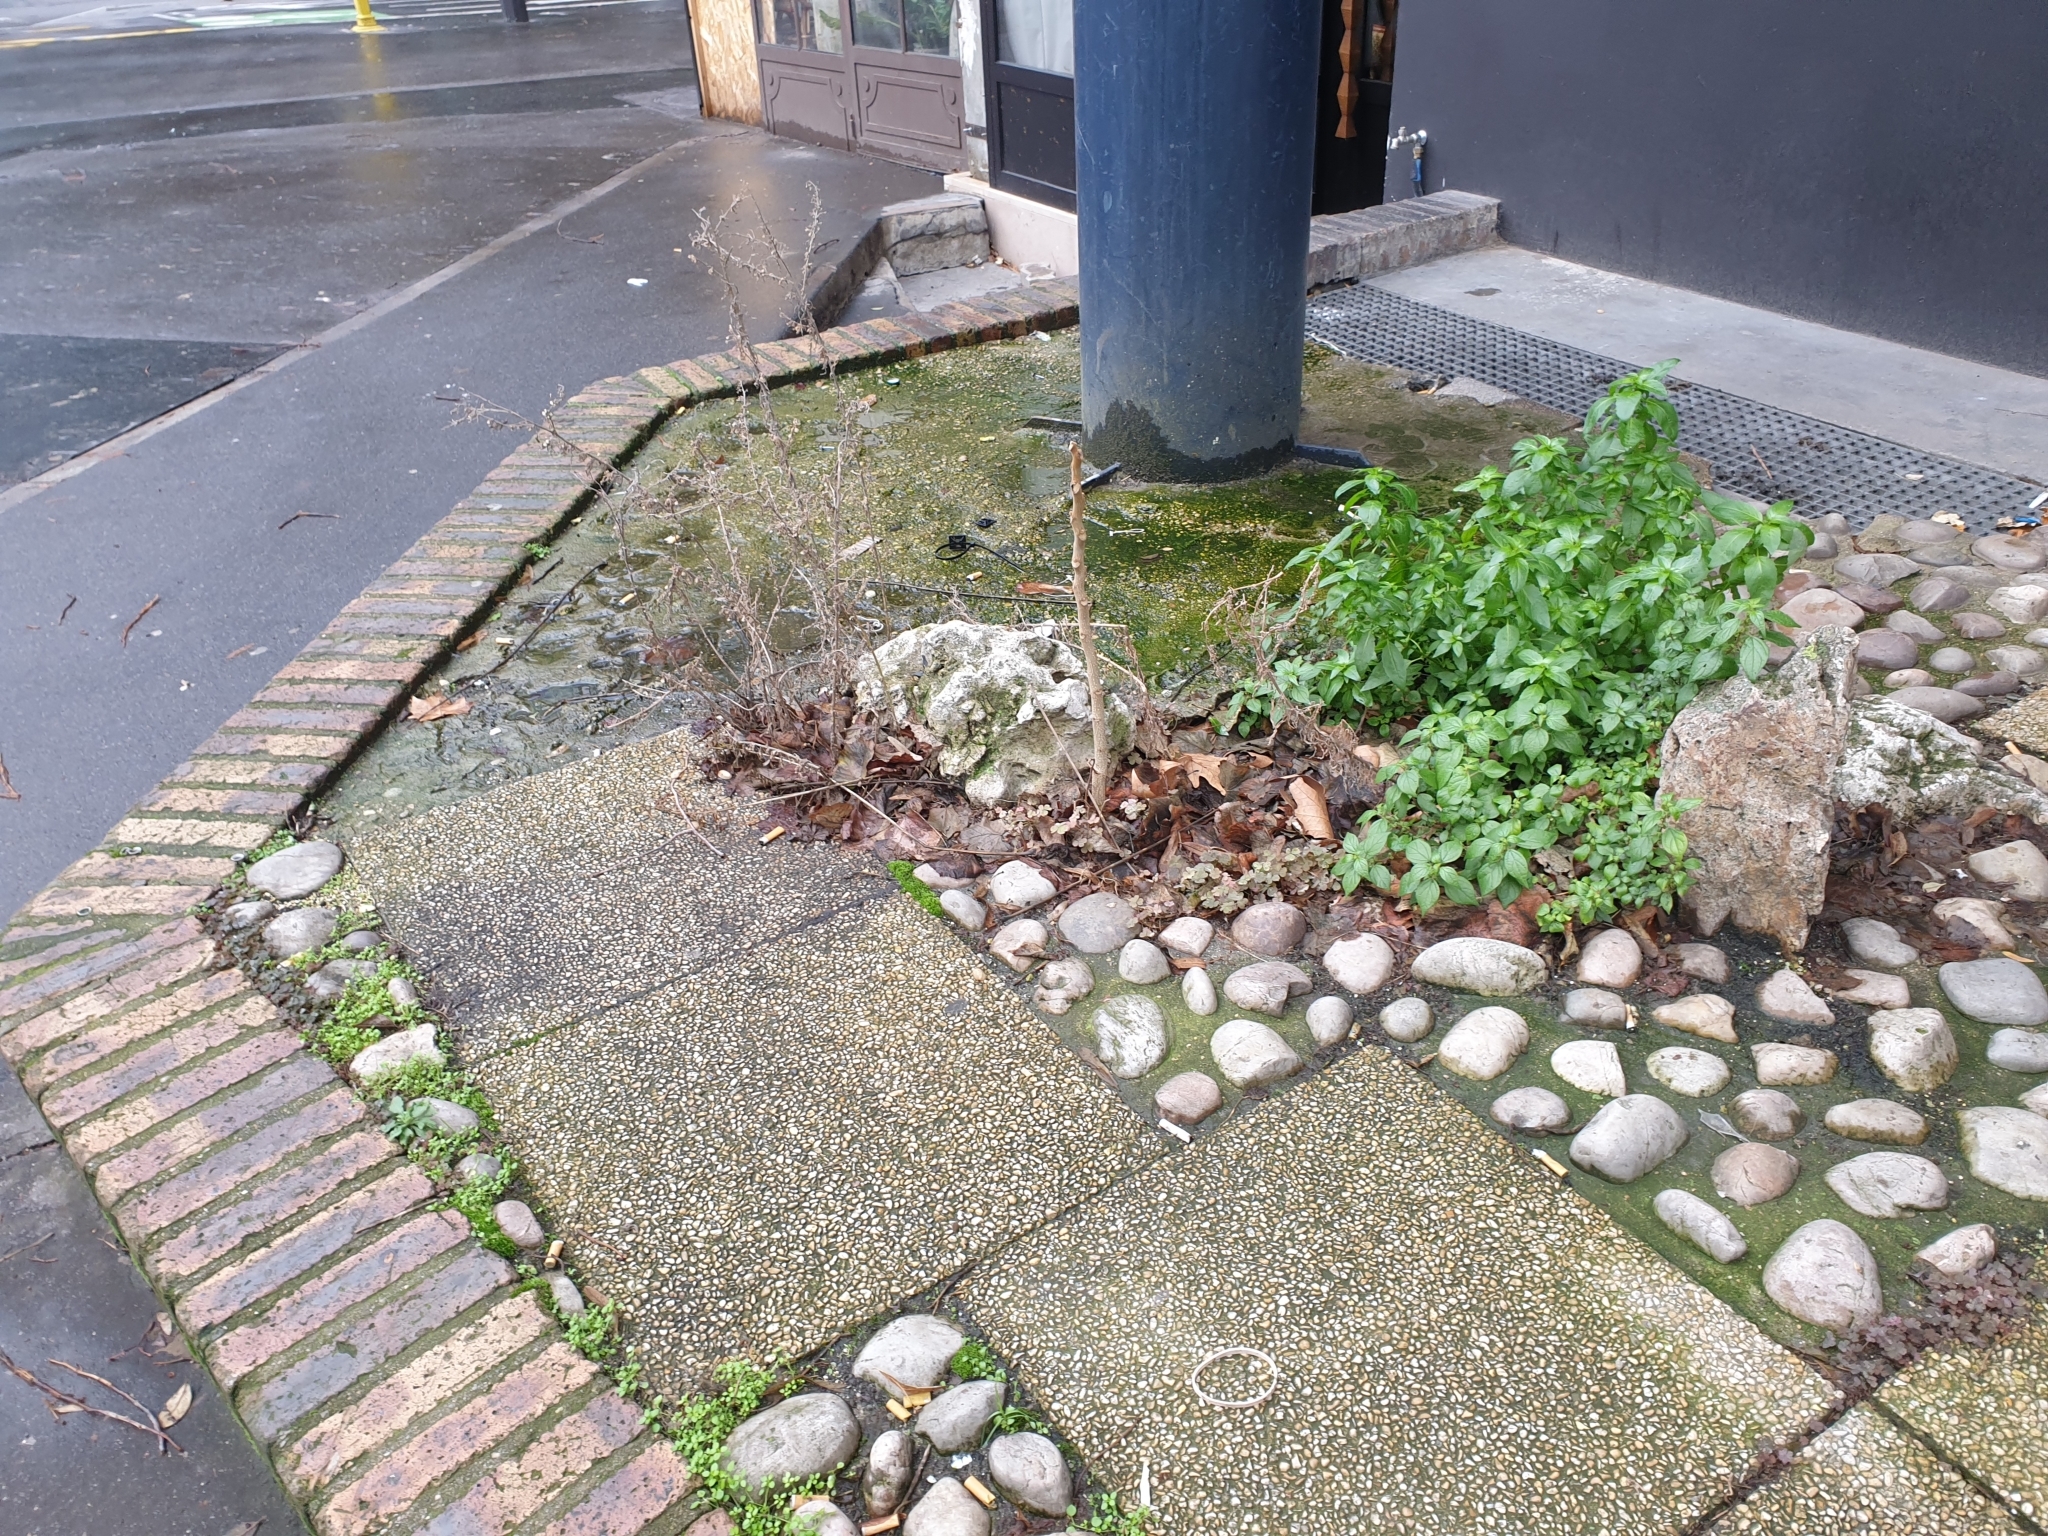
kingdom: Plantae
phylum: Tracheophyta
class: Magnoliopsida
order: Sapindales
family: Simaroubaceae
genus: Ailanthus
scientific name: Ailanthus altissima
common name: Tree-of-heaven
